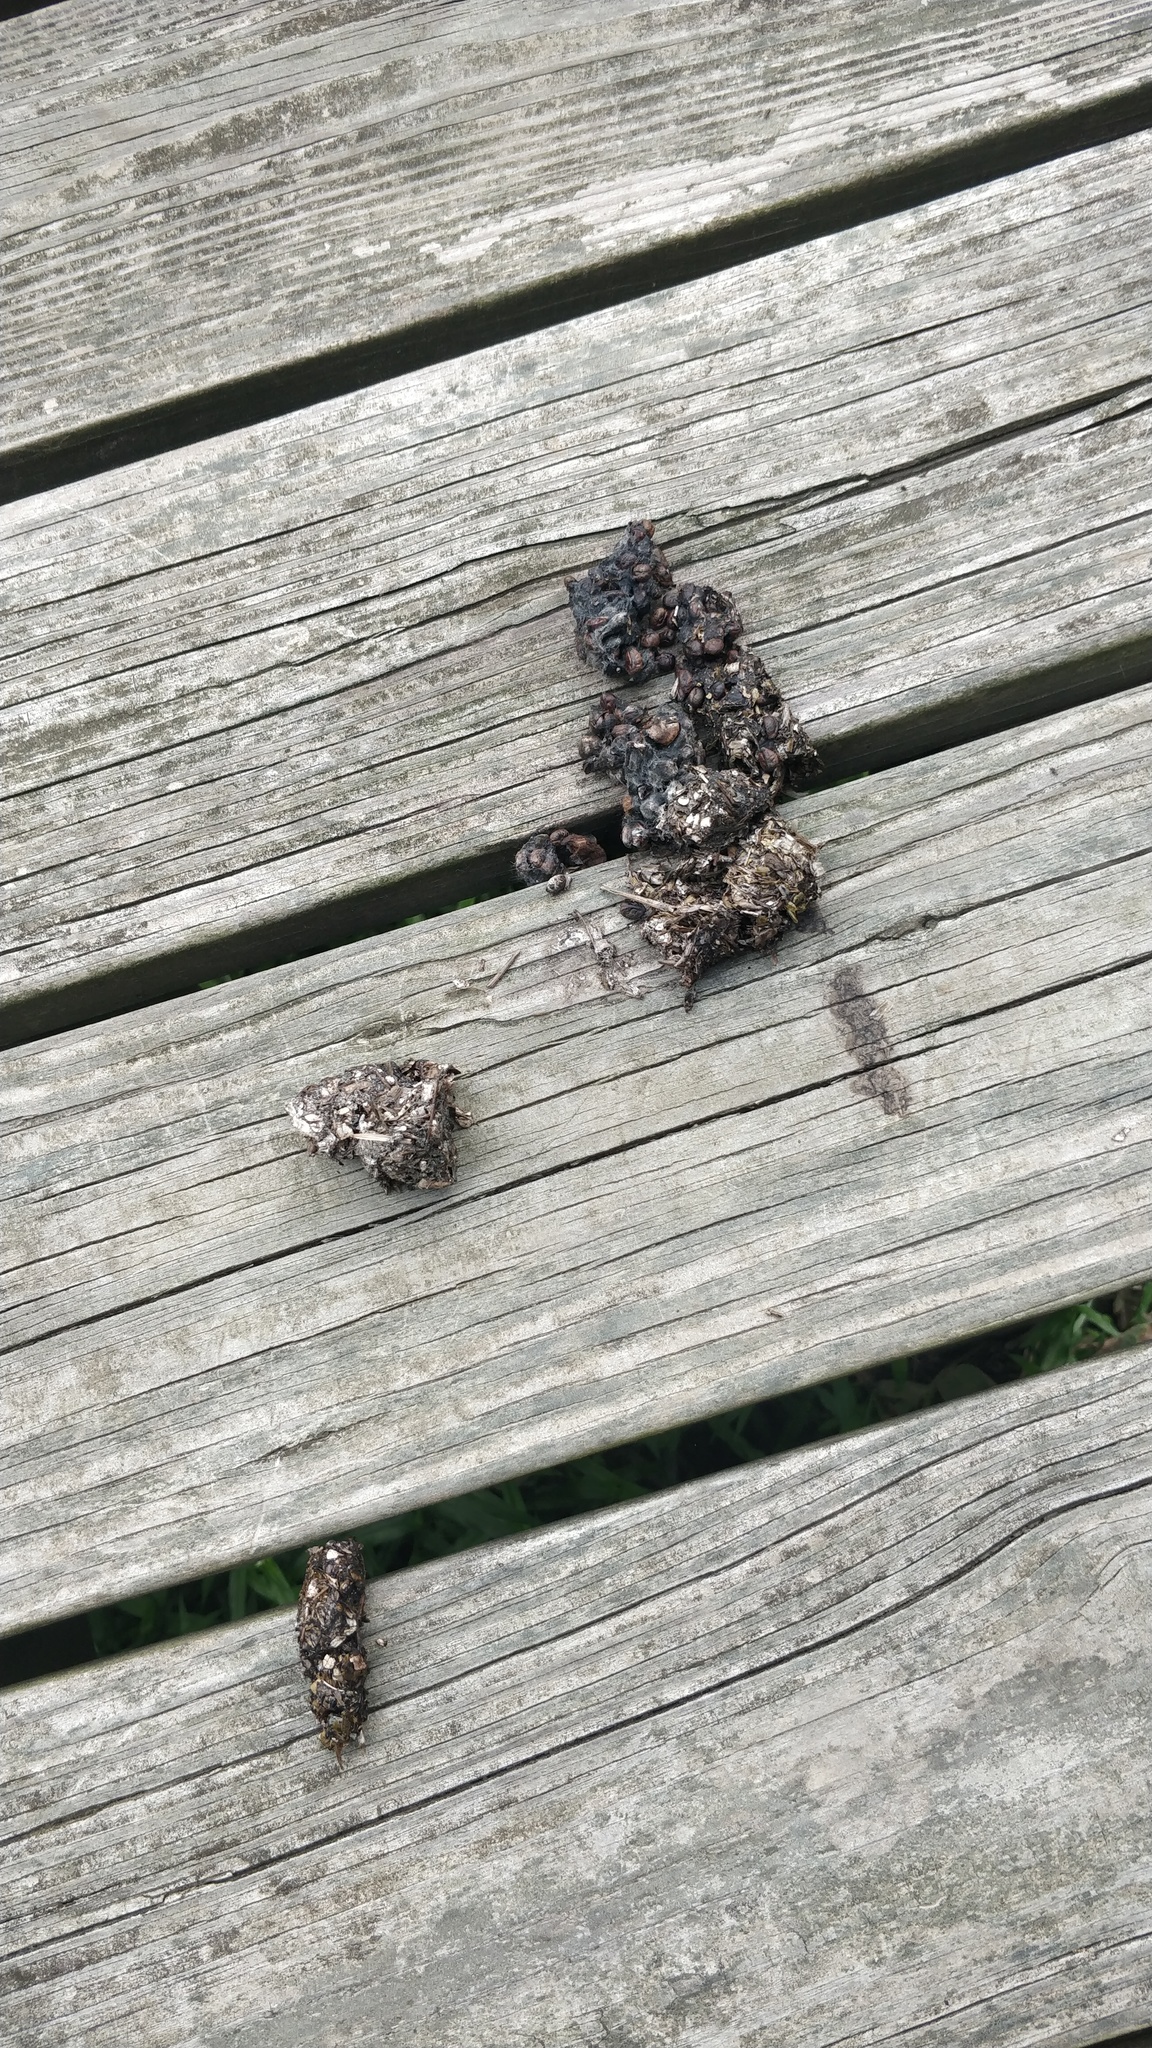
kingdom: Animalia
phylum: Chordata
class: Mammalia
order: Carnivora
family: Mustelidae
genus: Lontra
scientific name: Lontra canadensis
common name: North american river otter
